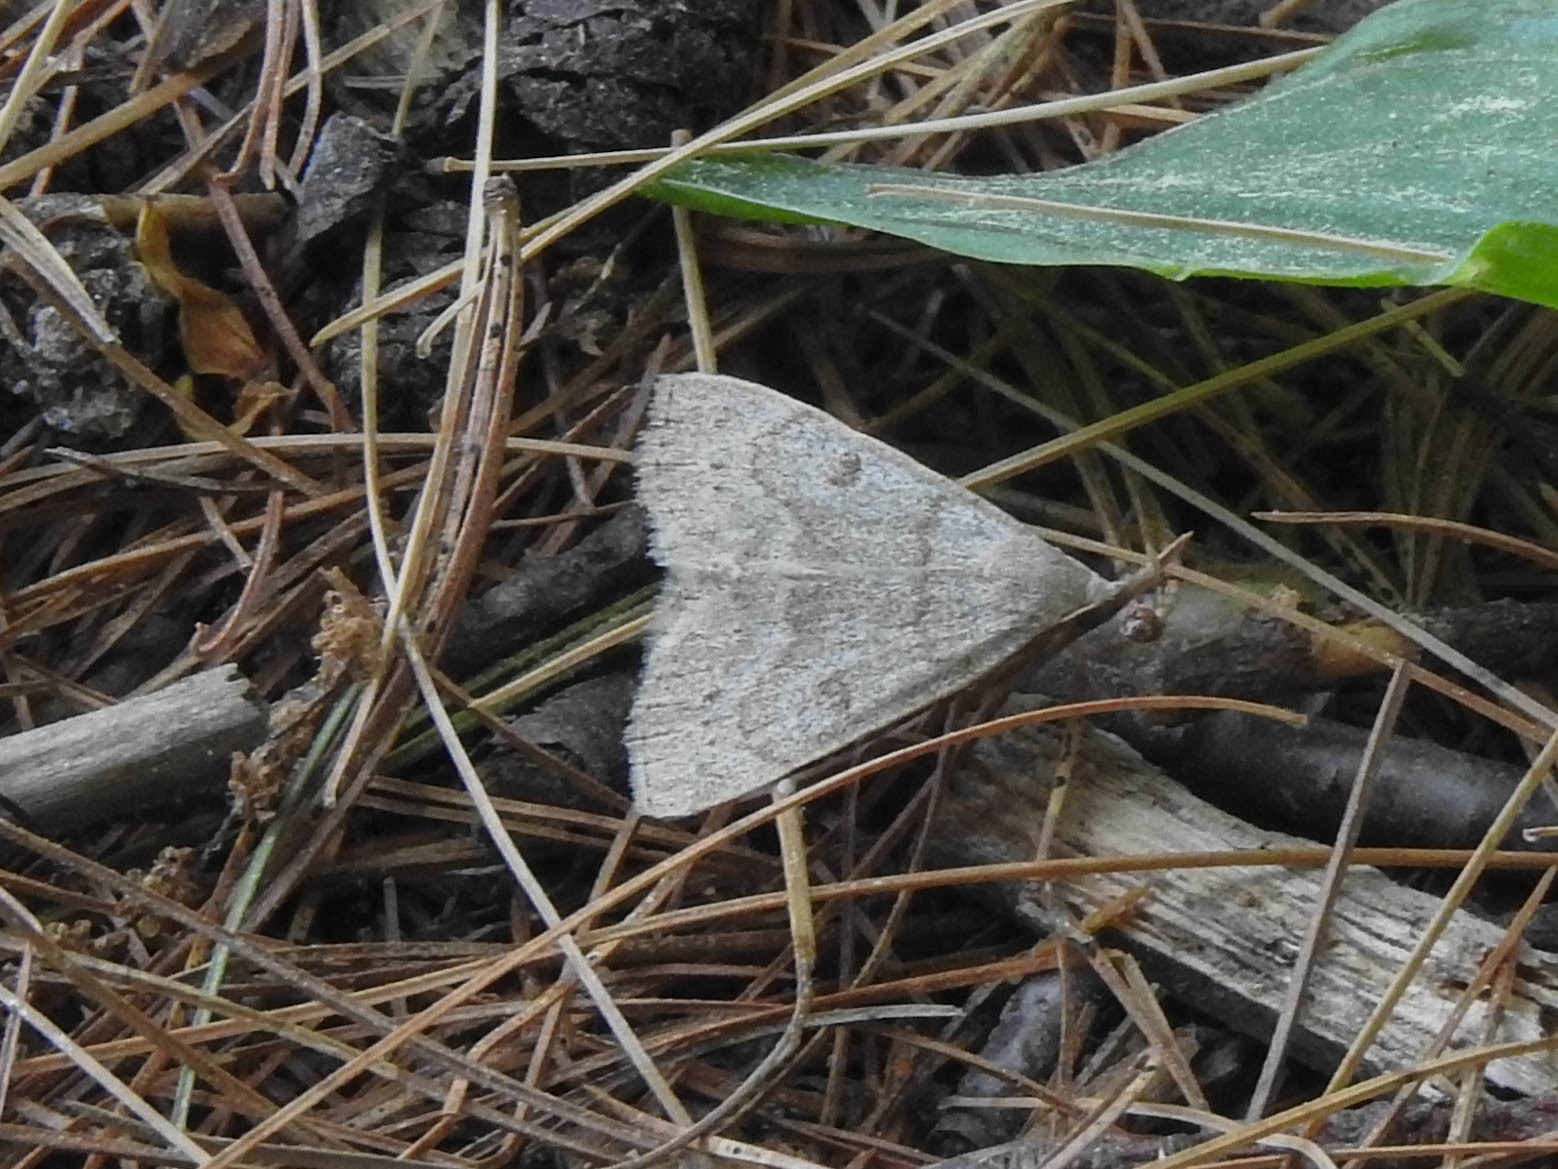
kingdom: Animalia
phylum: Arthropoda
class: Insecta
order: Lepidoptera
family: Erebidae
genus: Macrochilo
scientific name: Macrochilo morbidalis
